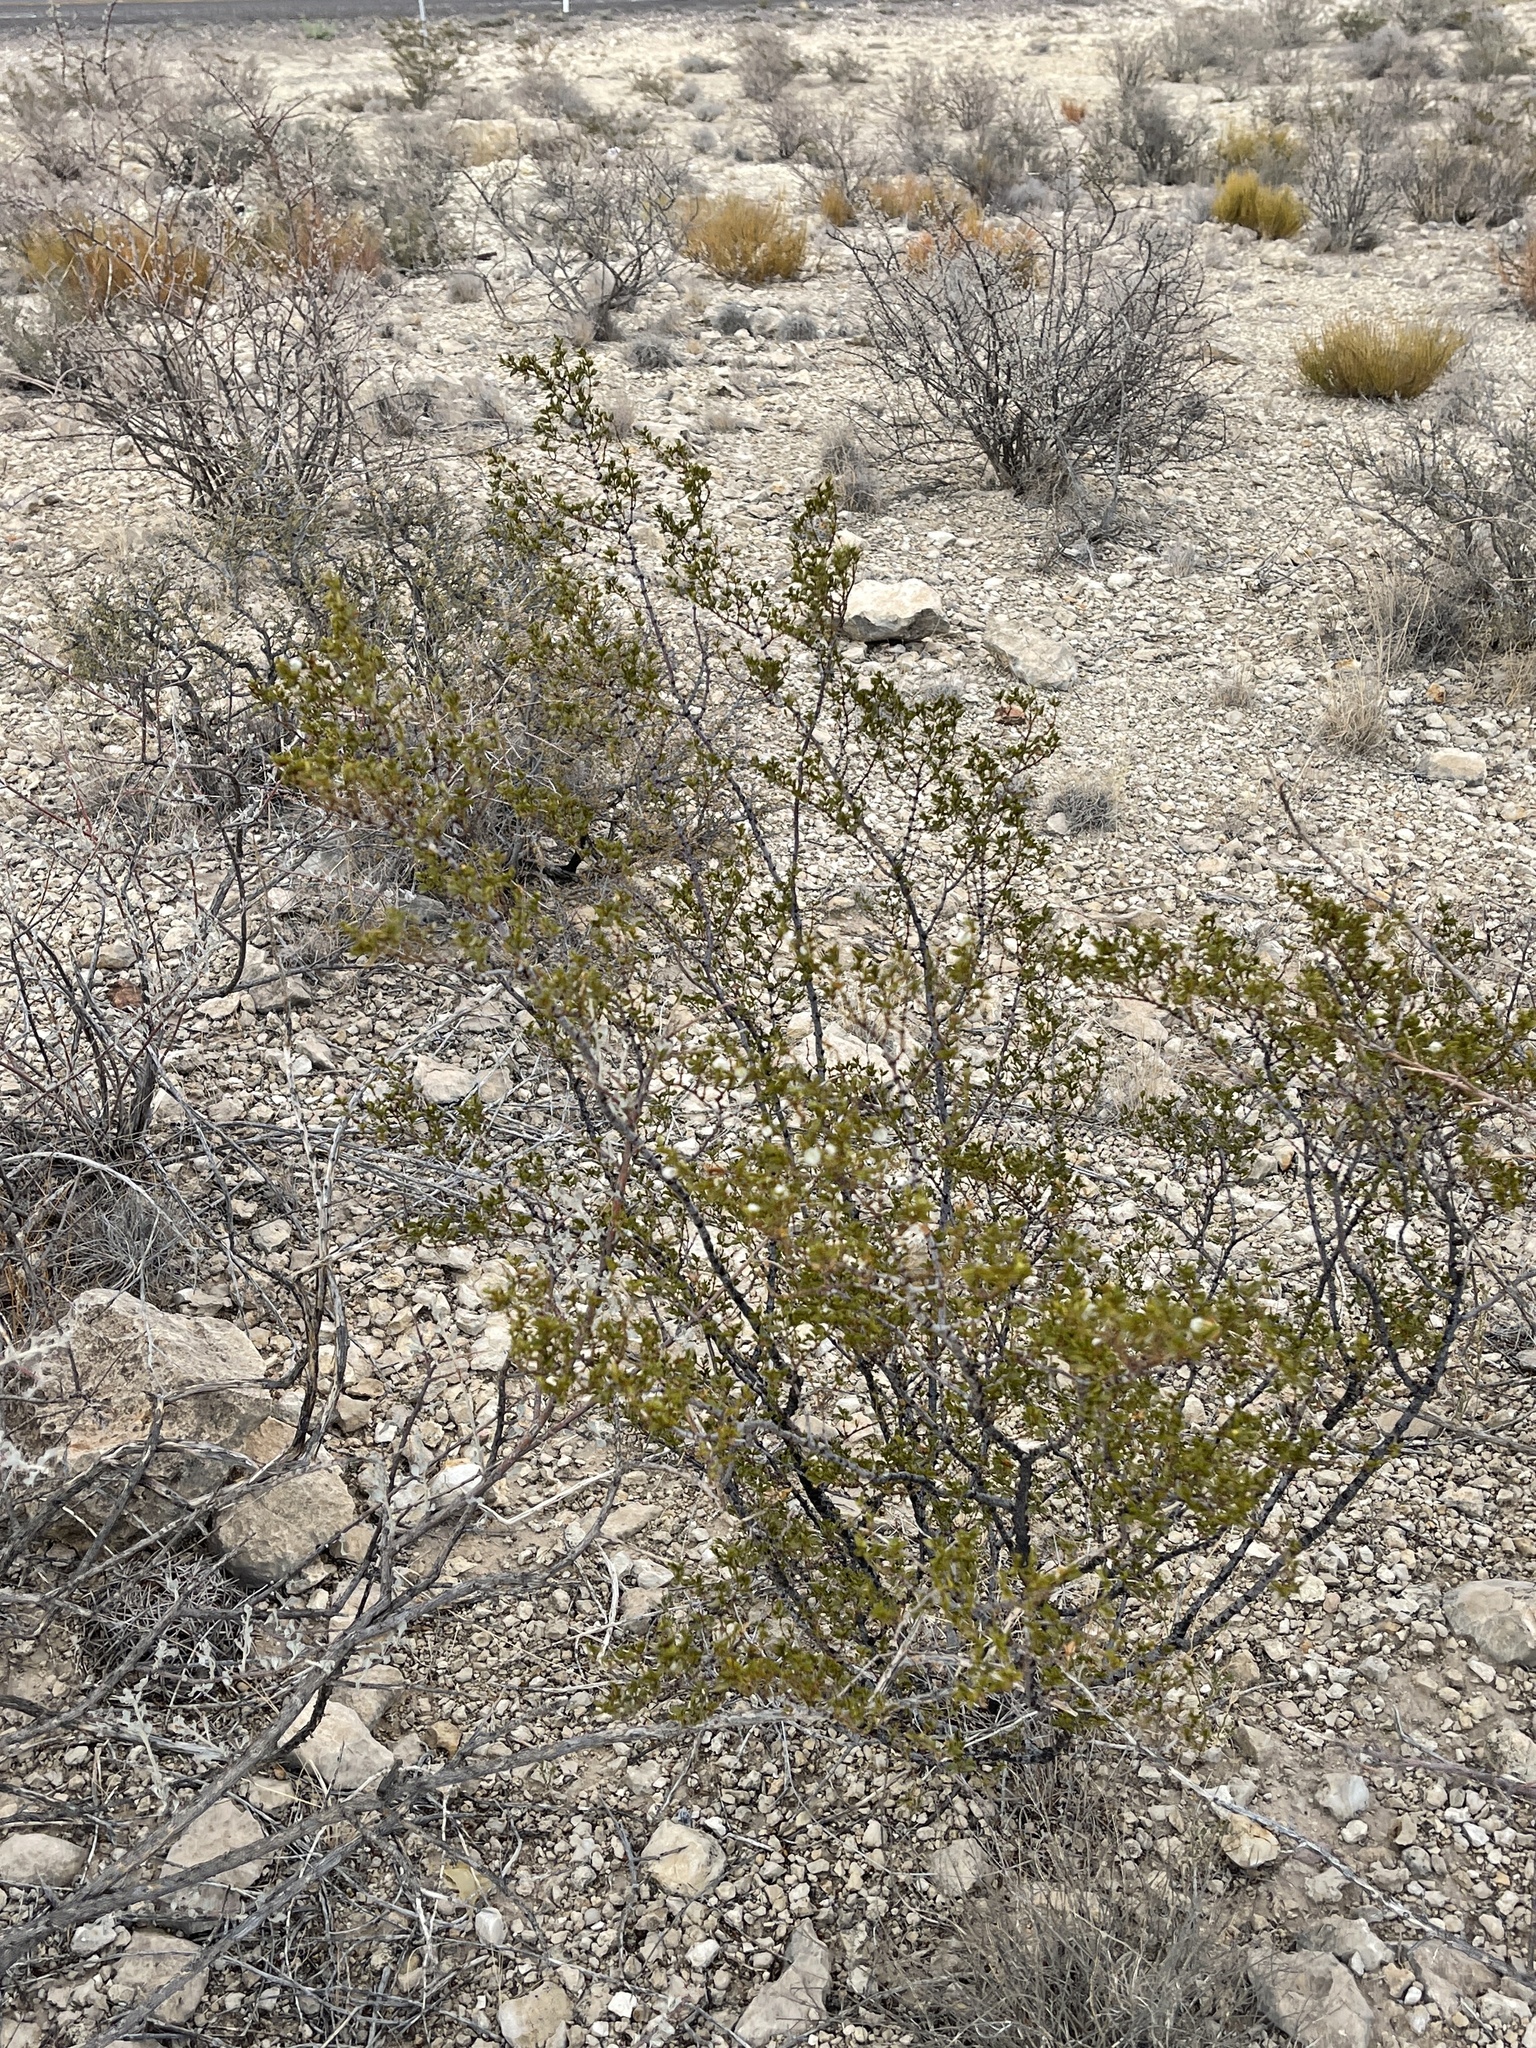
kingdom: Plantae
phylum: Tracheophyta
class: Magnoliopsida
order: Zygophyllales
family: Zygophyllaceae
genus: Larrea
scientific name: Larrea tridentata
